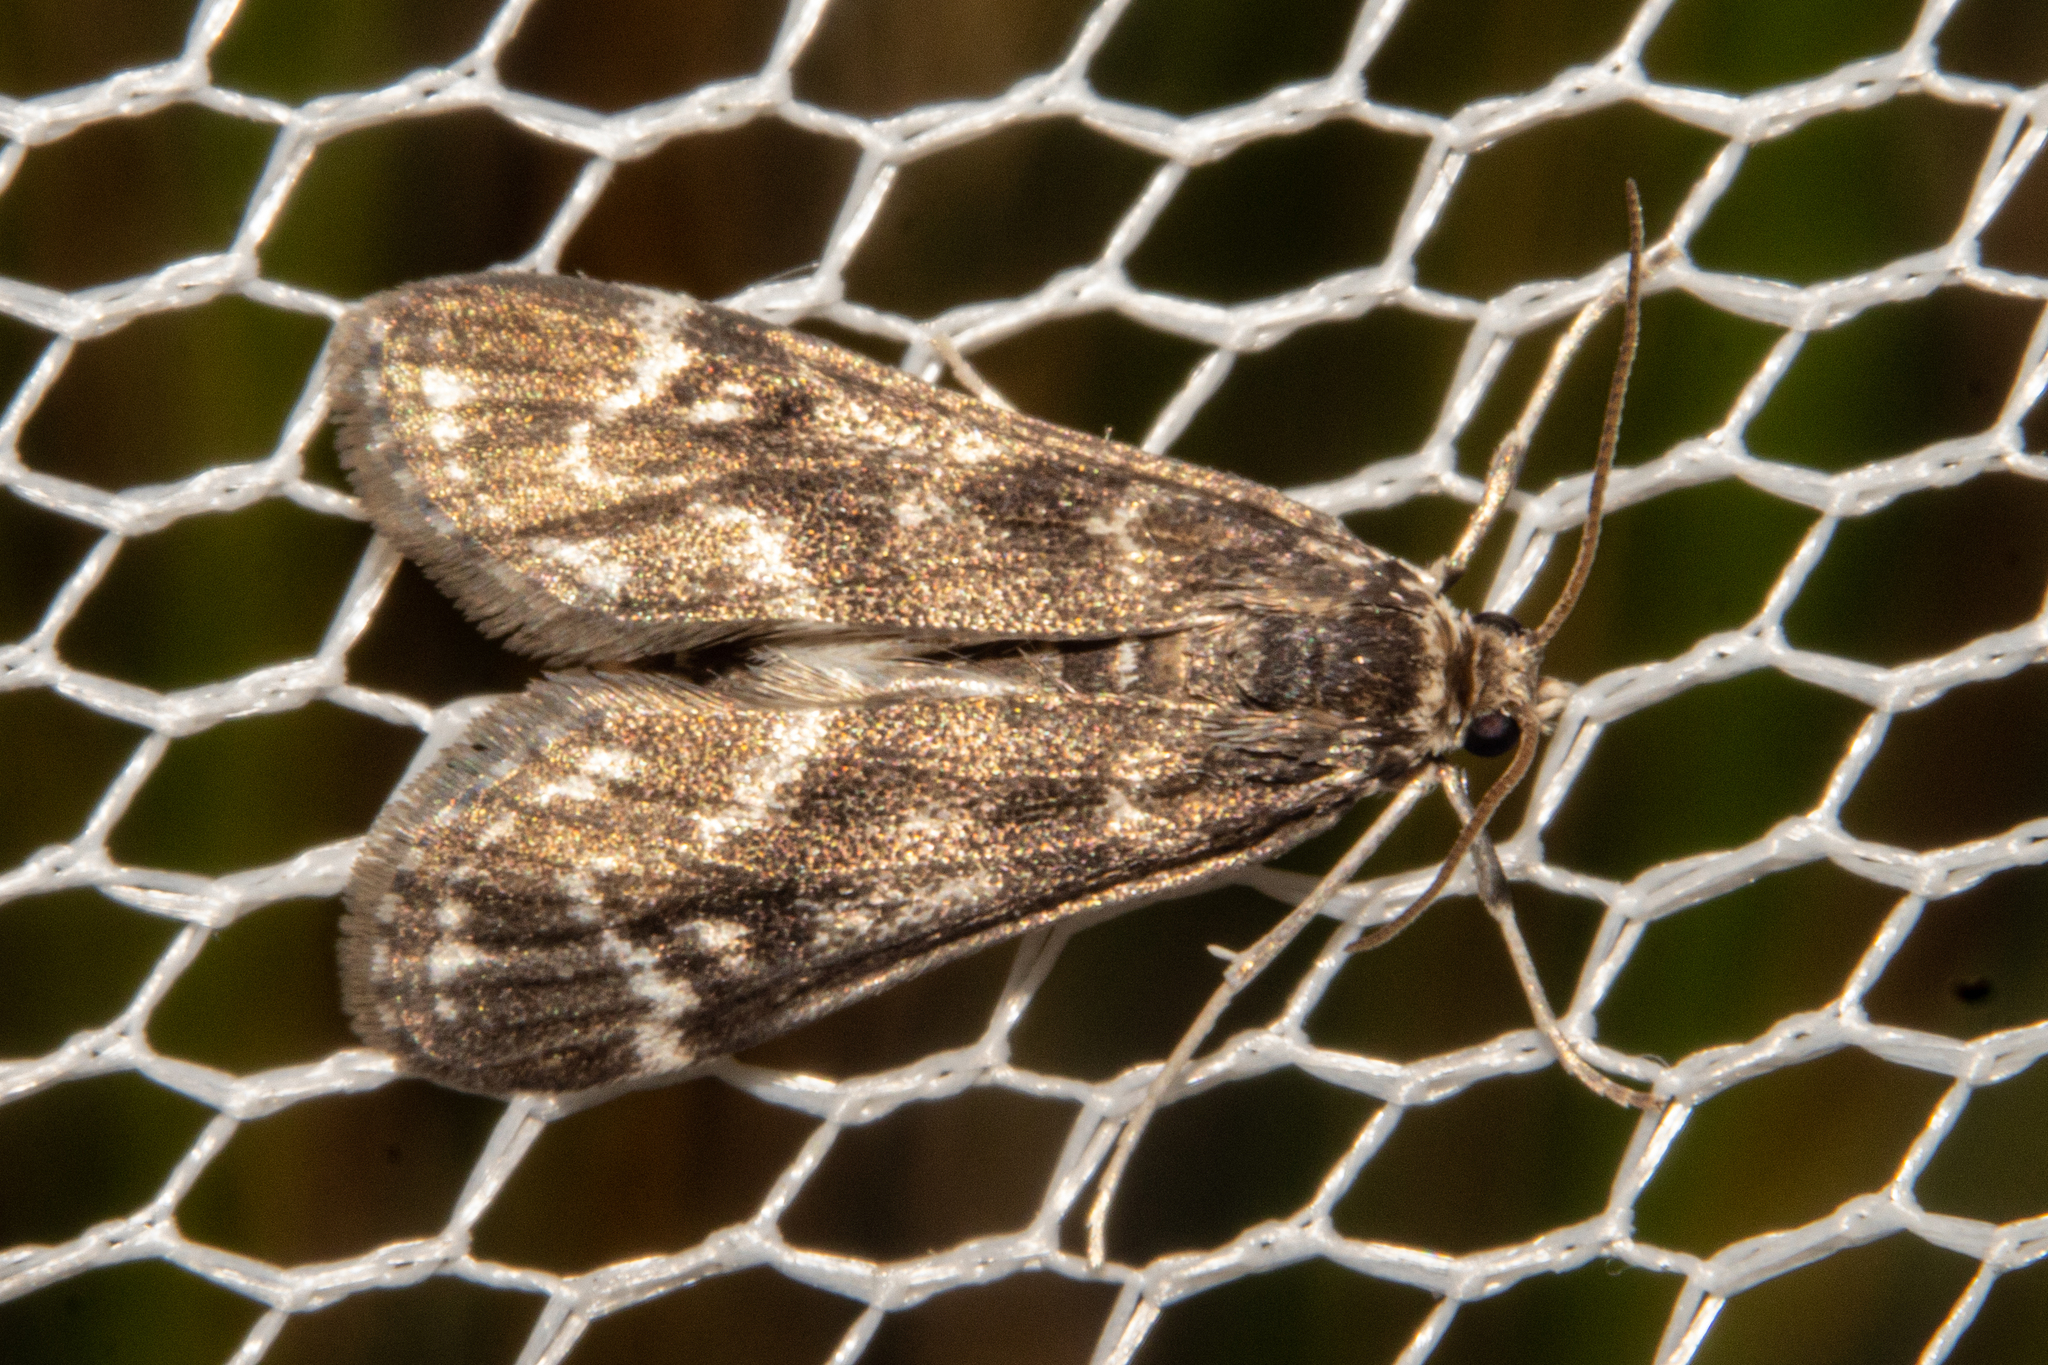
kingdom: Animalia
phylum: Arthropoda
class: Insecta
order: Lepidoptera
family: Crambidae
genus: Hygraula
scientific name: Hygraula nitens
